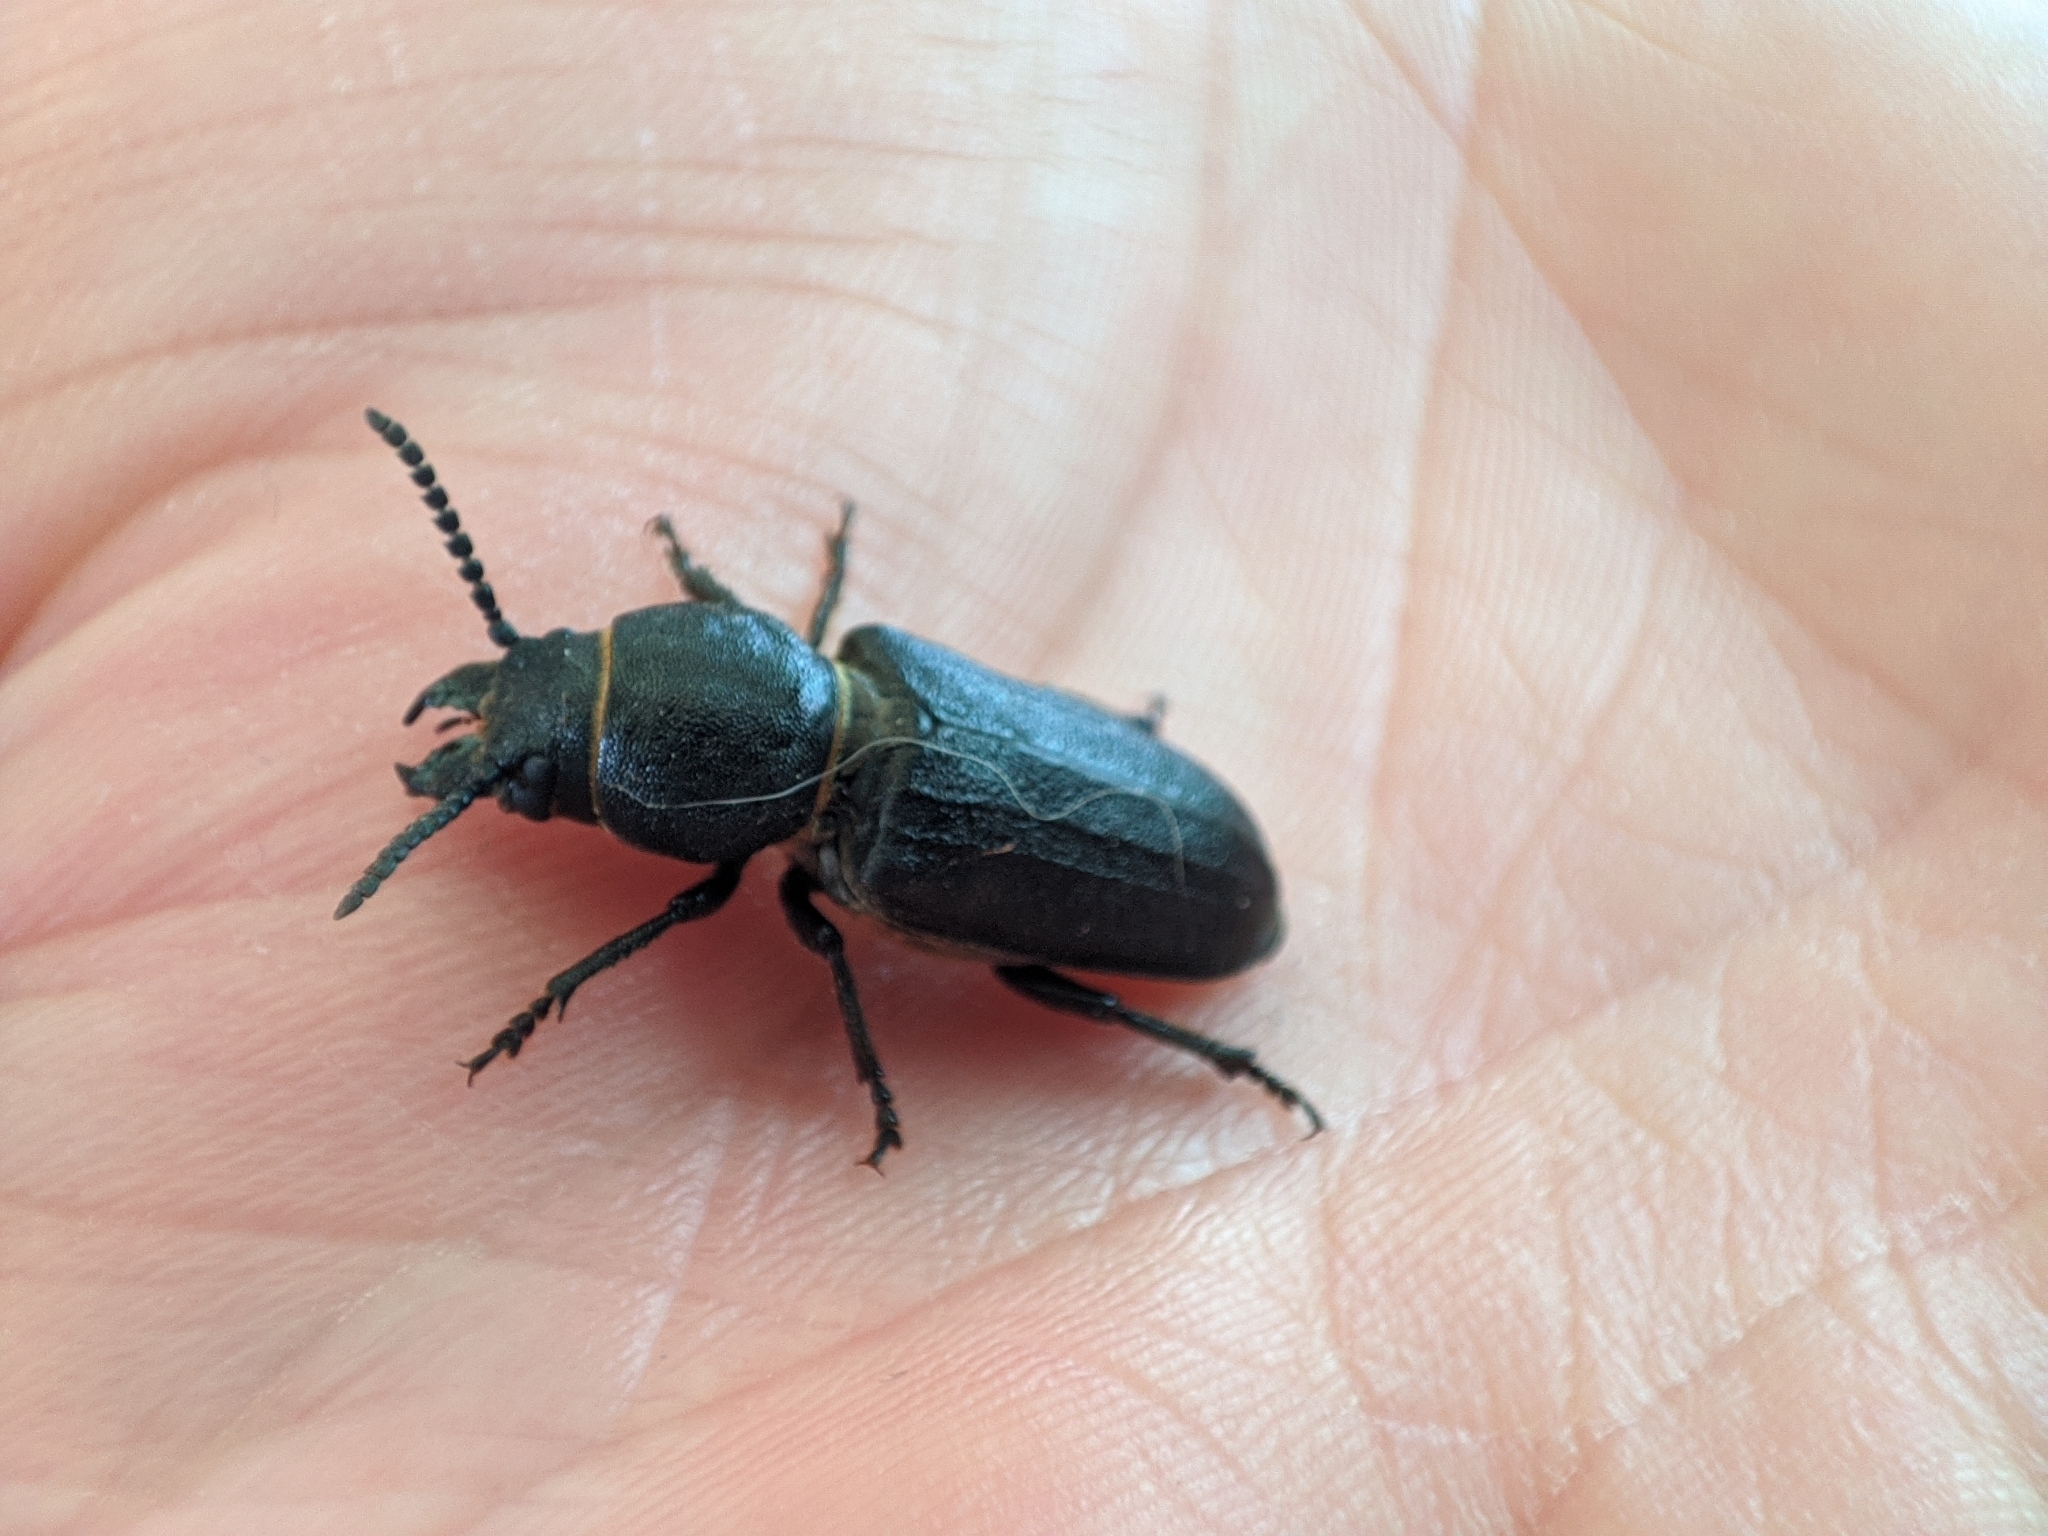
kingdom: Animalia
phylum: Arthropoda
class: Insecta
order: Coleoptera
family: Cerambycidae
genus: Spondylis
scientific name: Spondylis buprestoides
